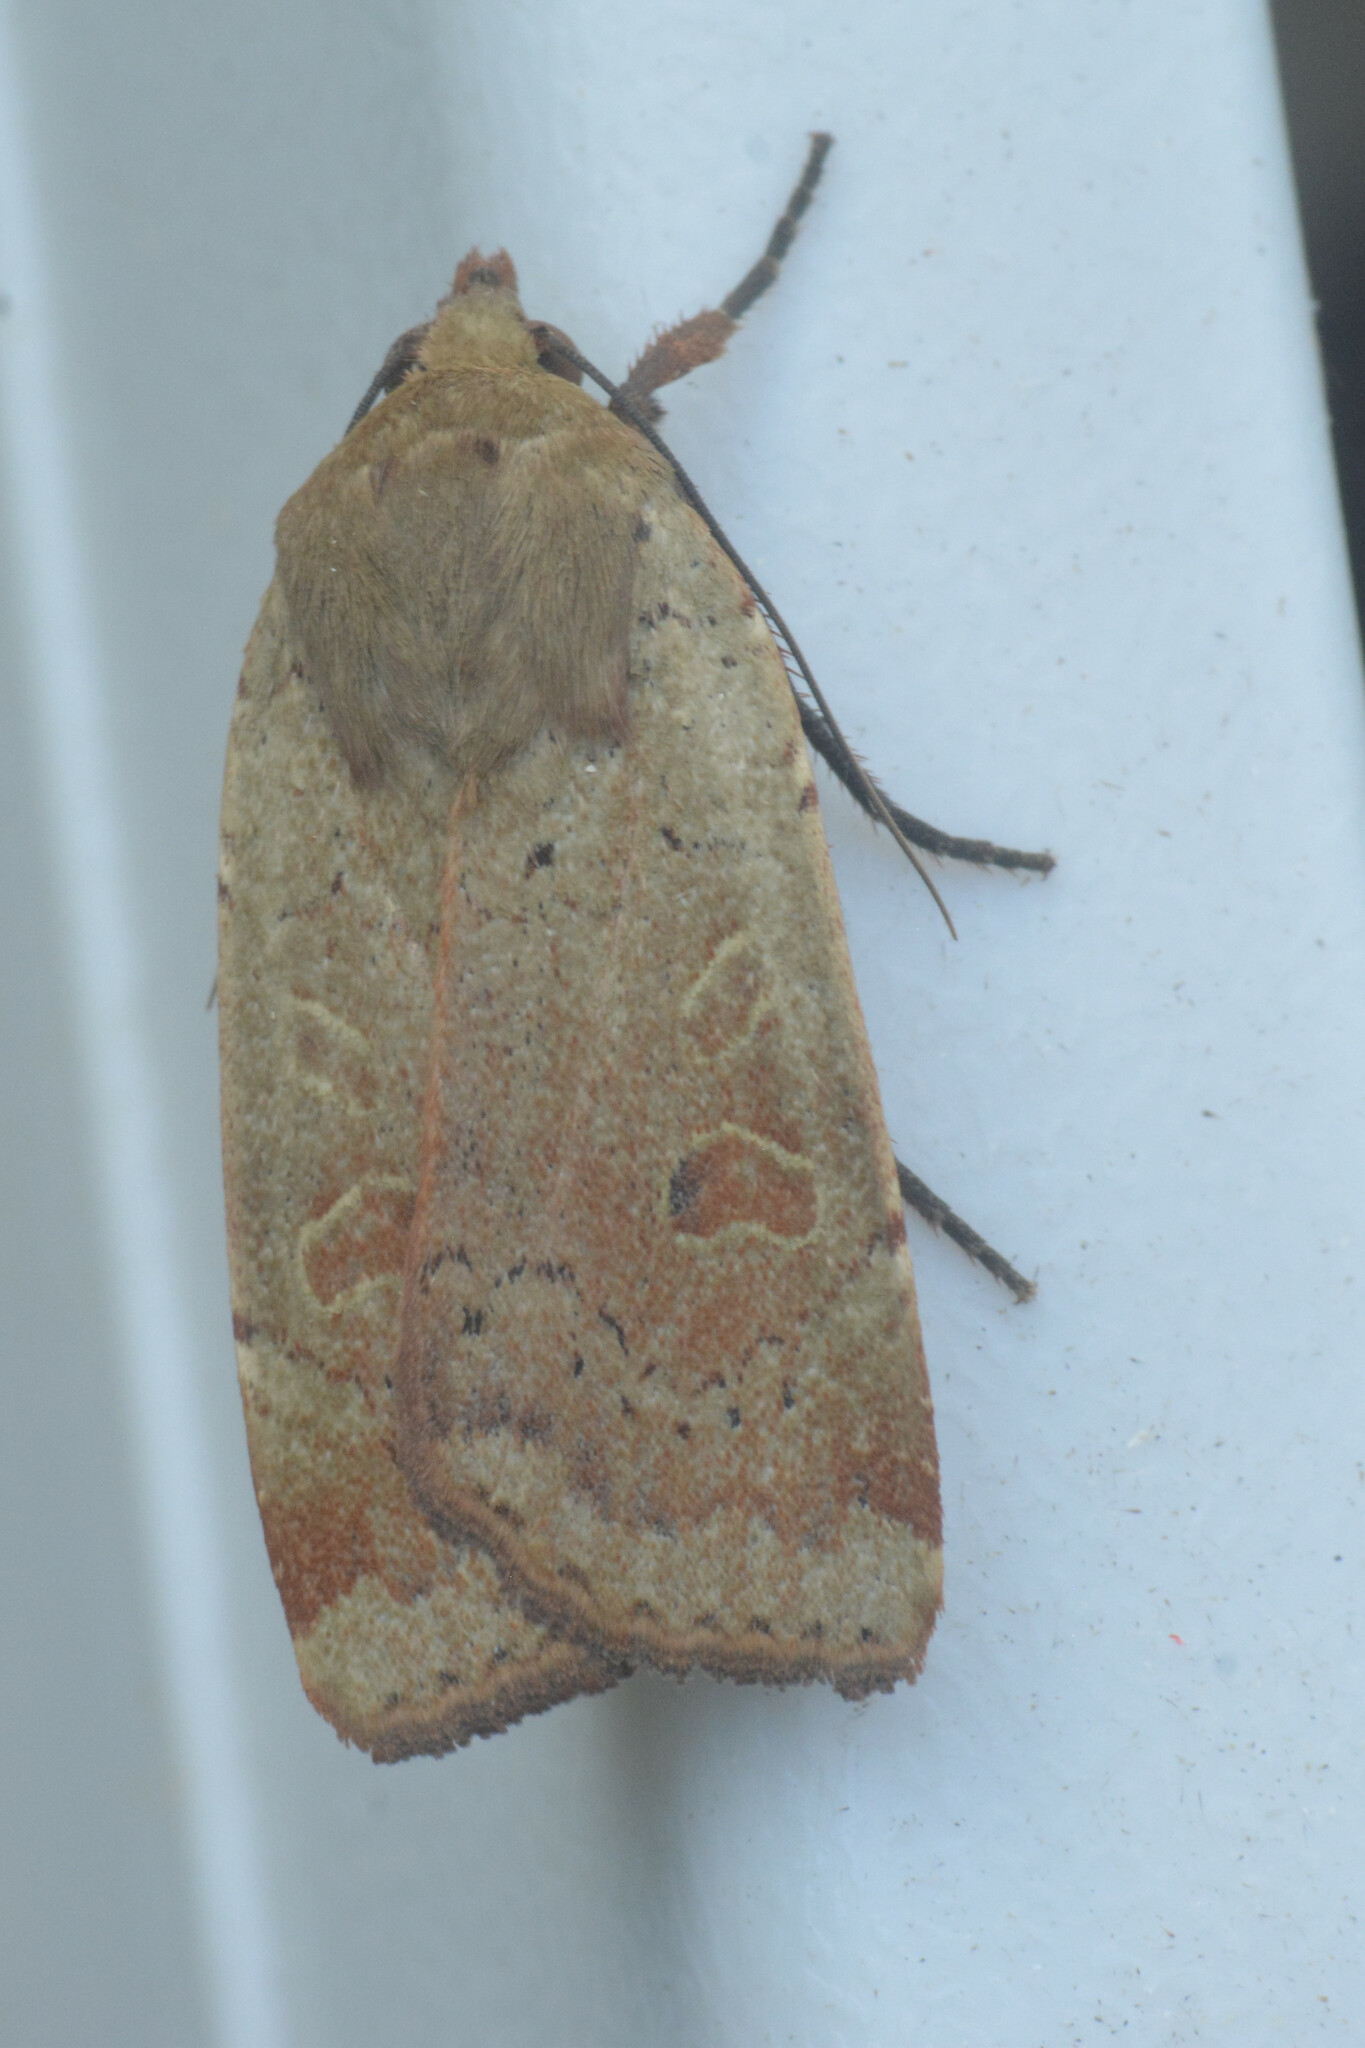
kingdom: Animalia
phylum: Arthropoda
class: Insecta
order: Lepidoptera
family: Noctuidae
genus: Noctua
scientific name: Noctua comes
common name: Lesser yellow underwing
